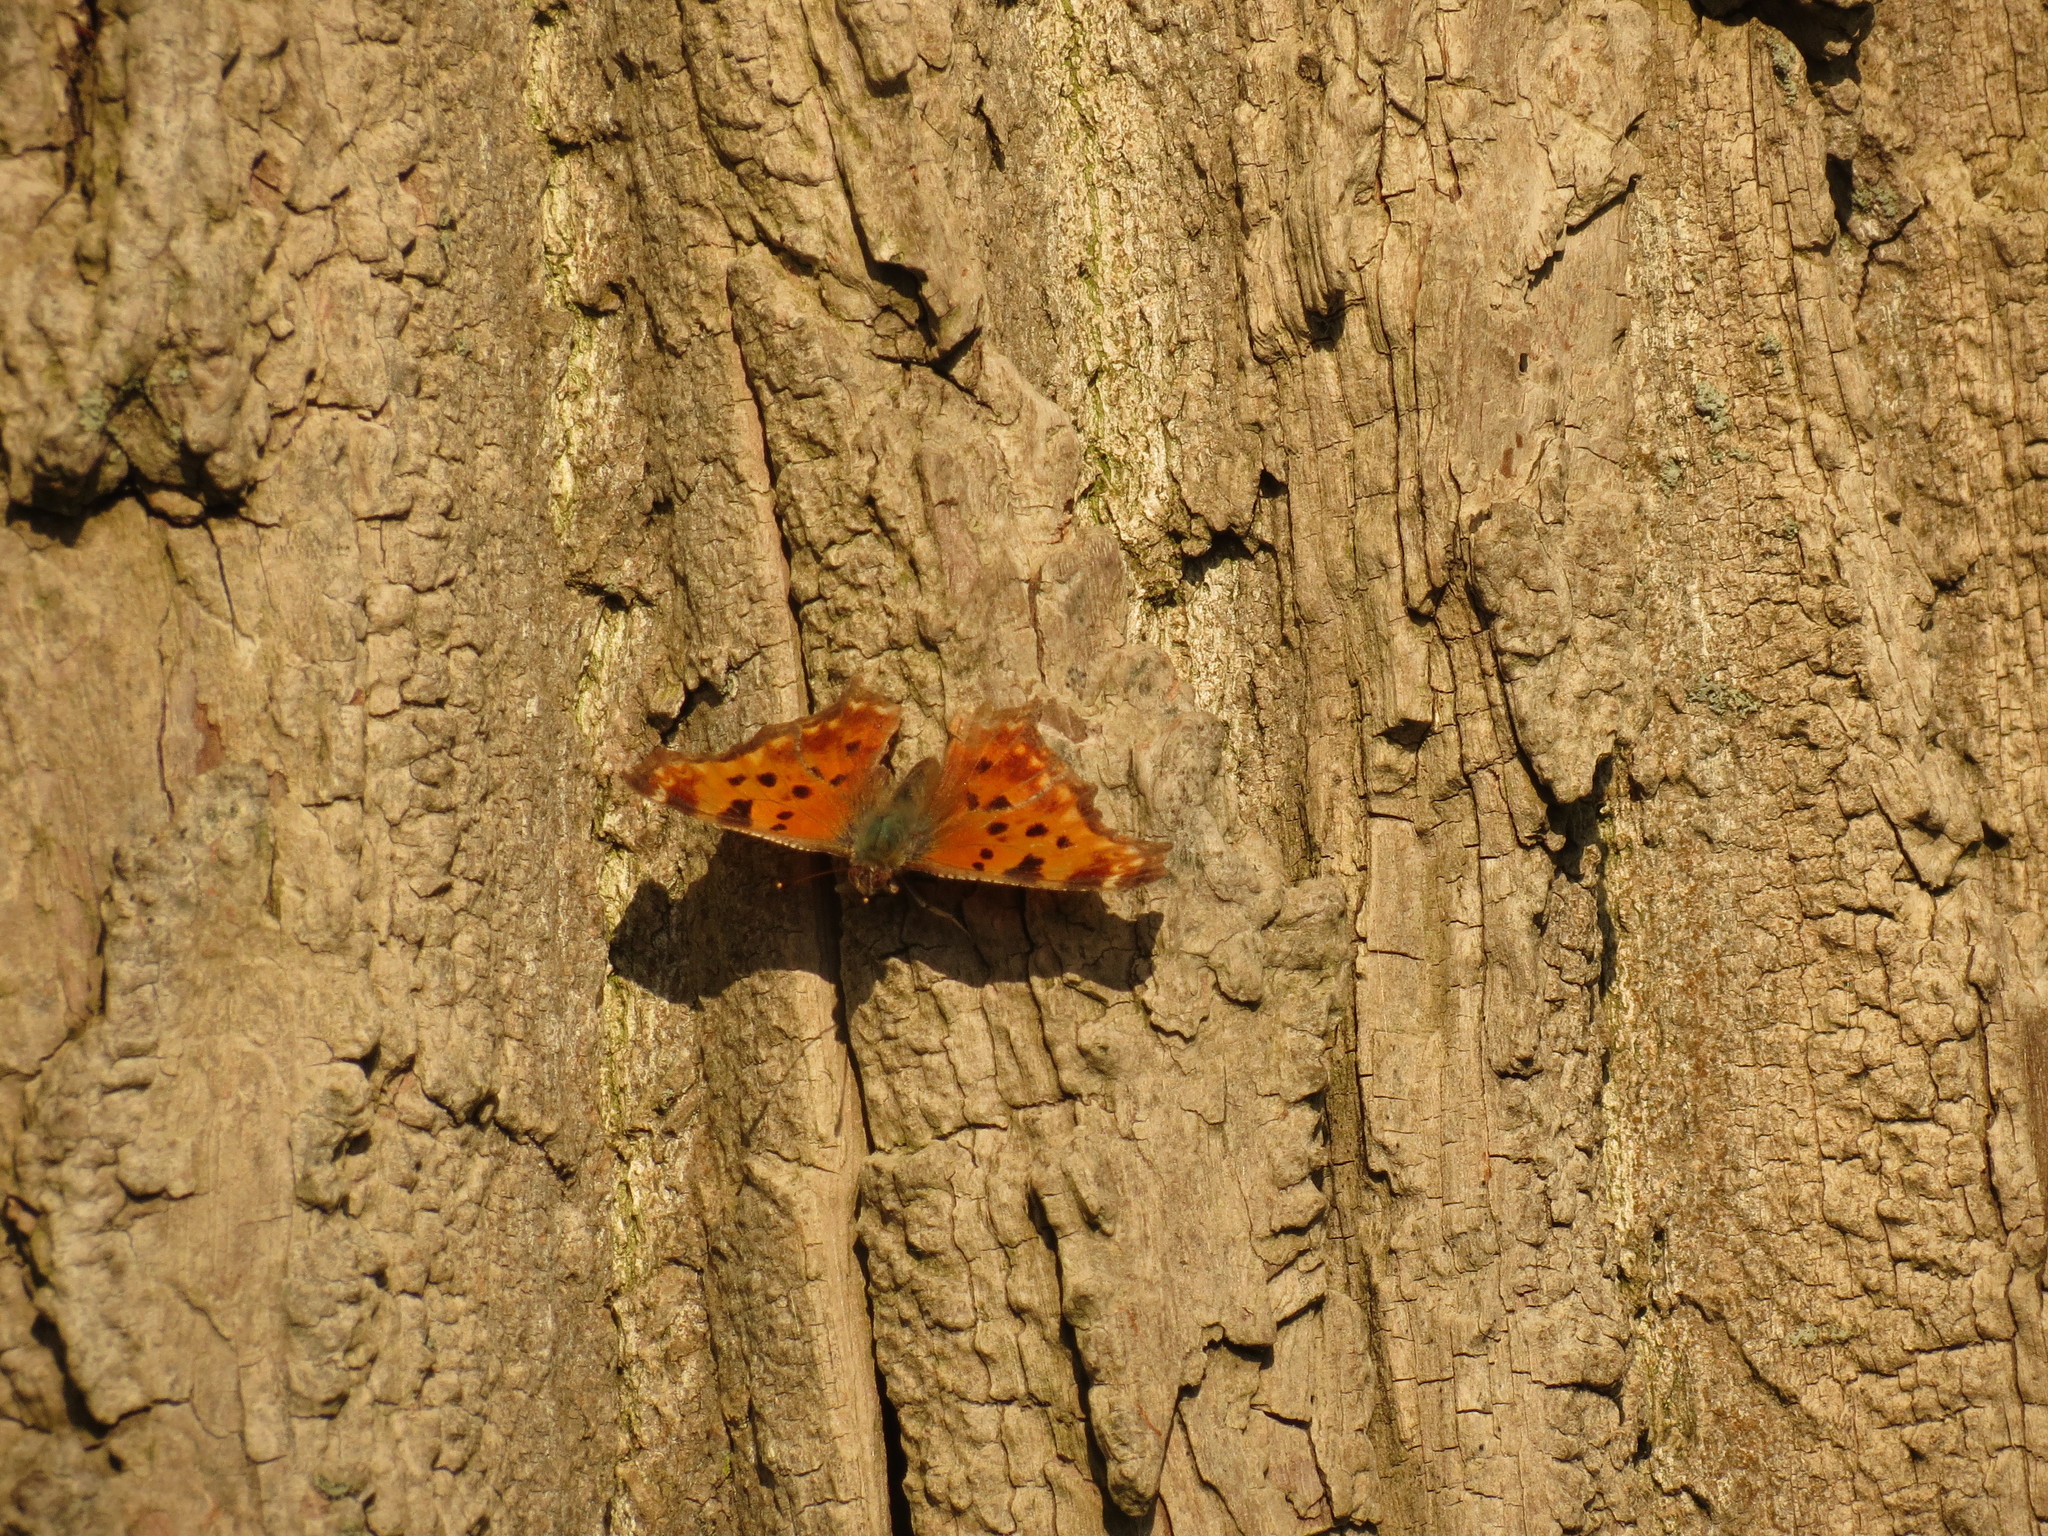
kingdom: Animalia
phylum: Arthropoda
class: Insecta
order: Lepidoptera
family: Nymphalidae
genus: Polygonia
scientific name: Polygonia comma
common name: Eastern comma
